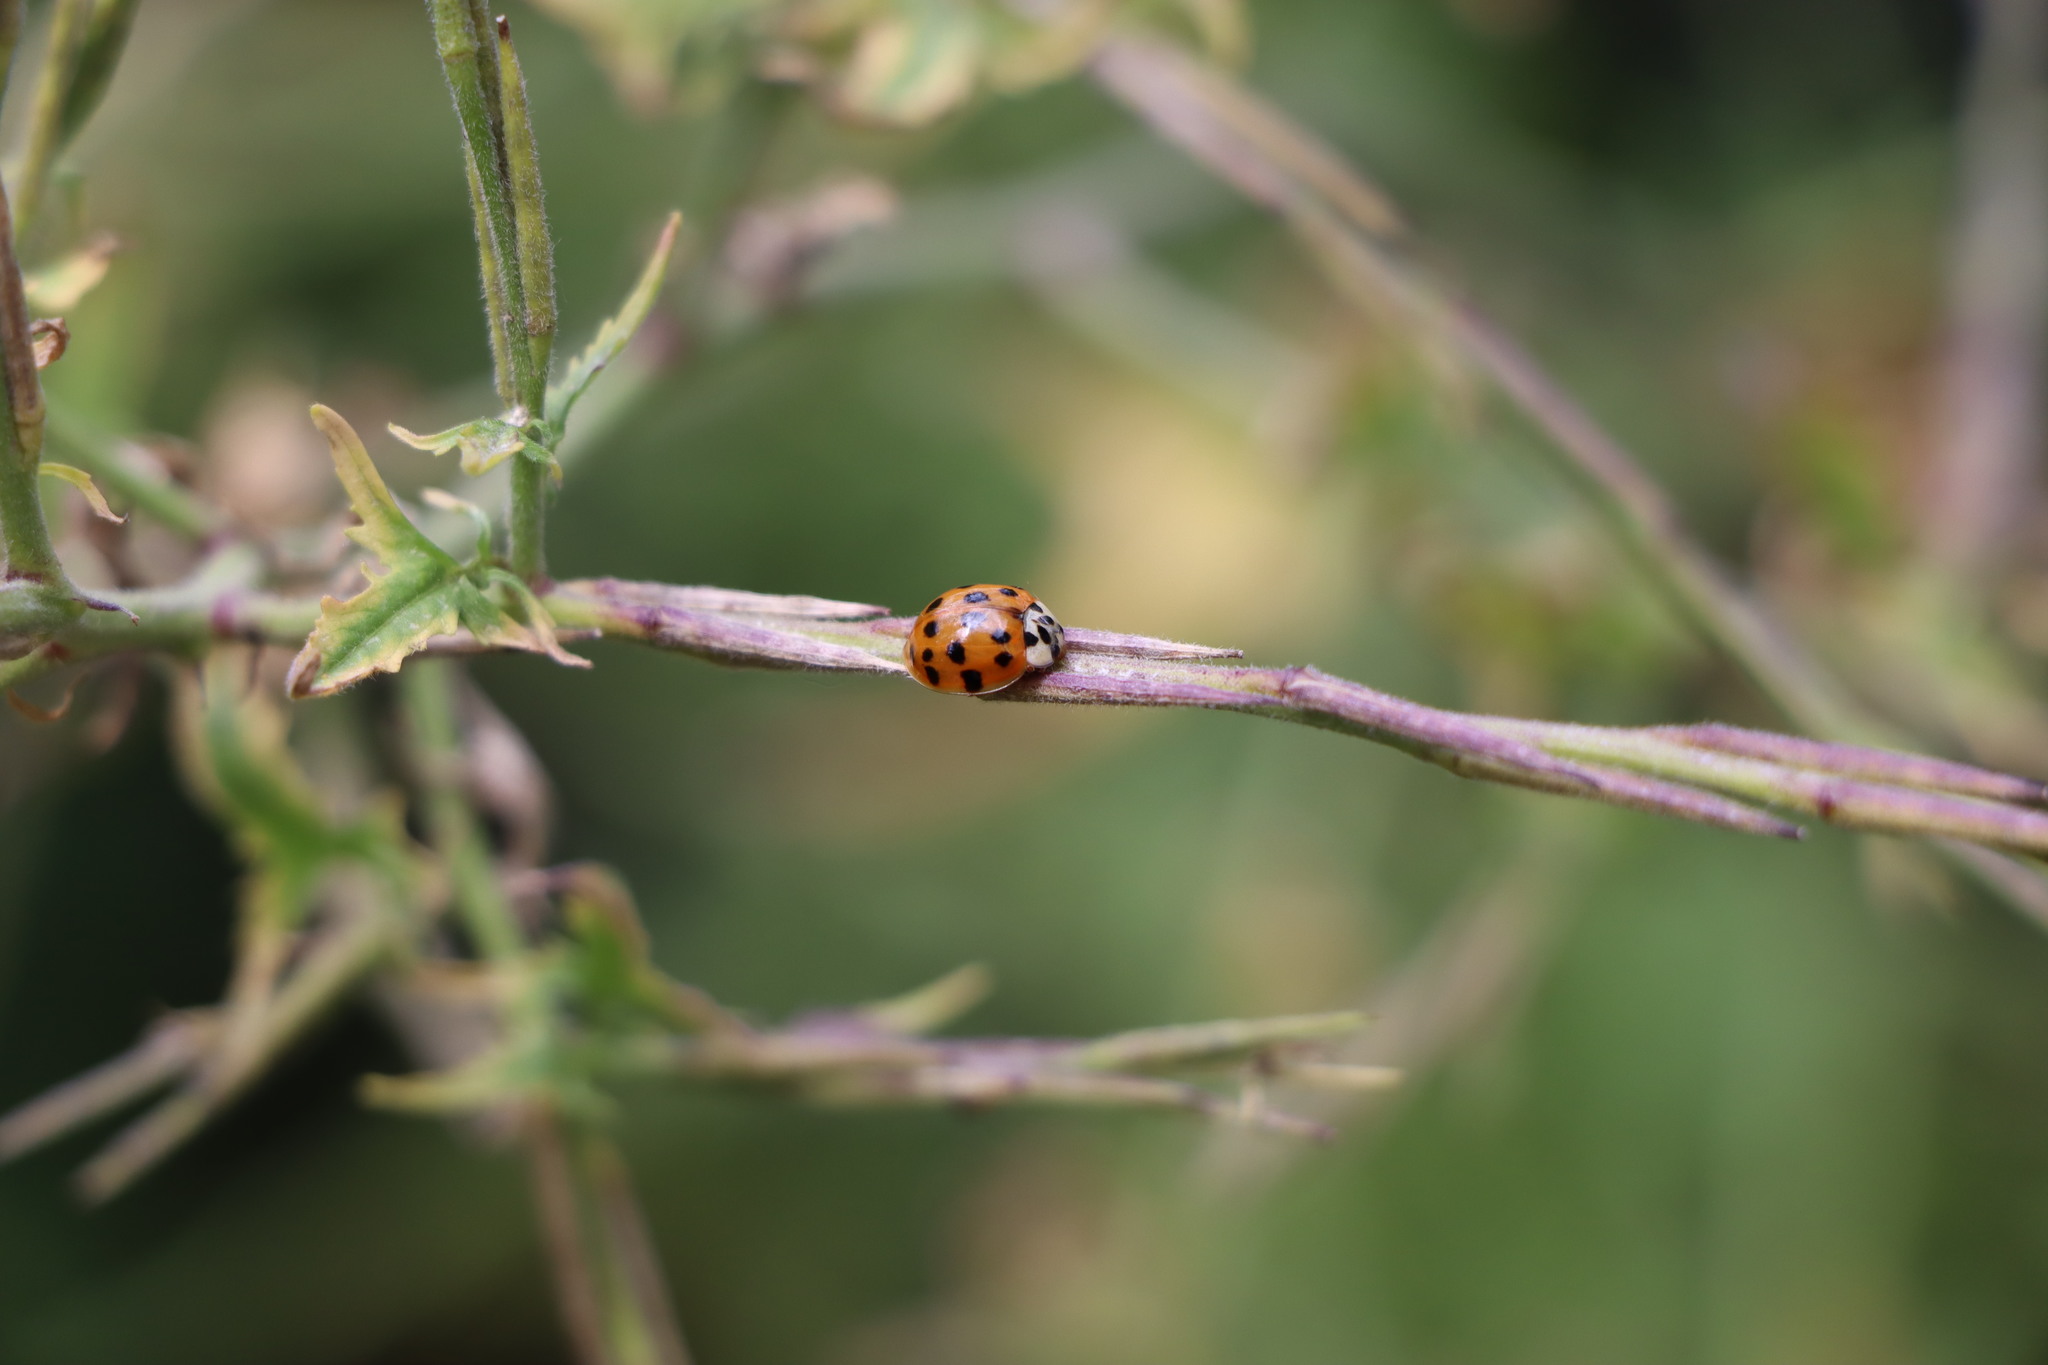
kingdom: Animalia
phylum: Arthropoda
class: Insecta
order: Coleoptera
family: Coccinellidae
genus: Harmonia
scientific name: Harmonia axyridis
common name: Harlequin ladybird
